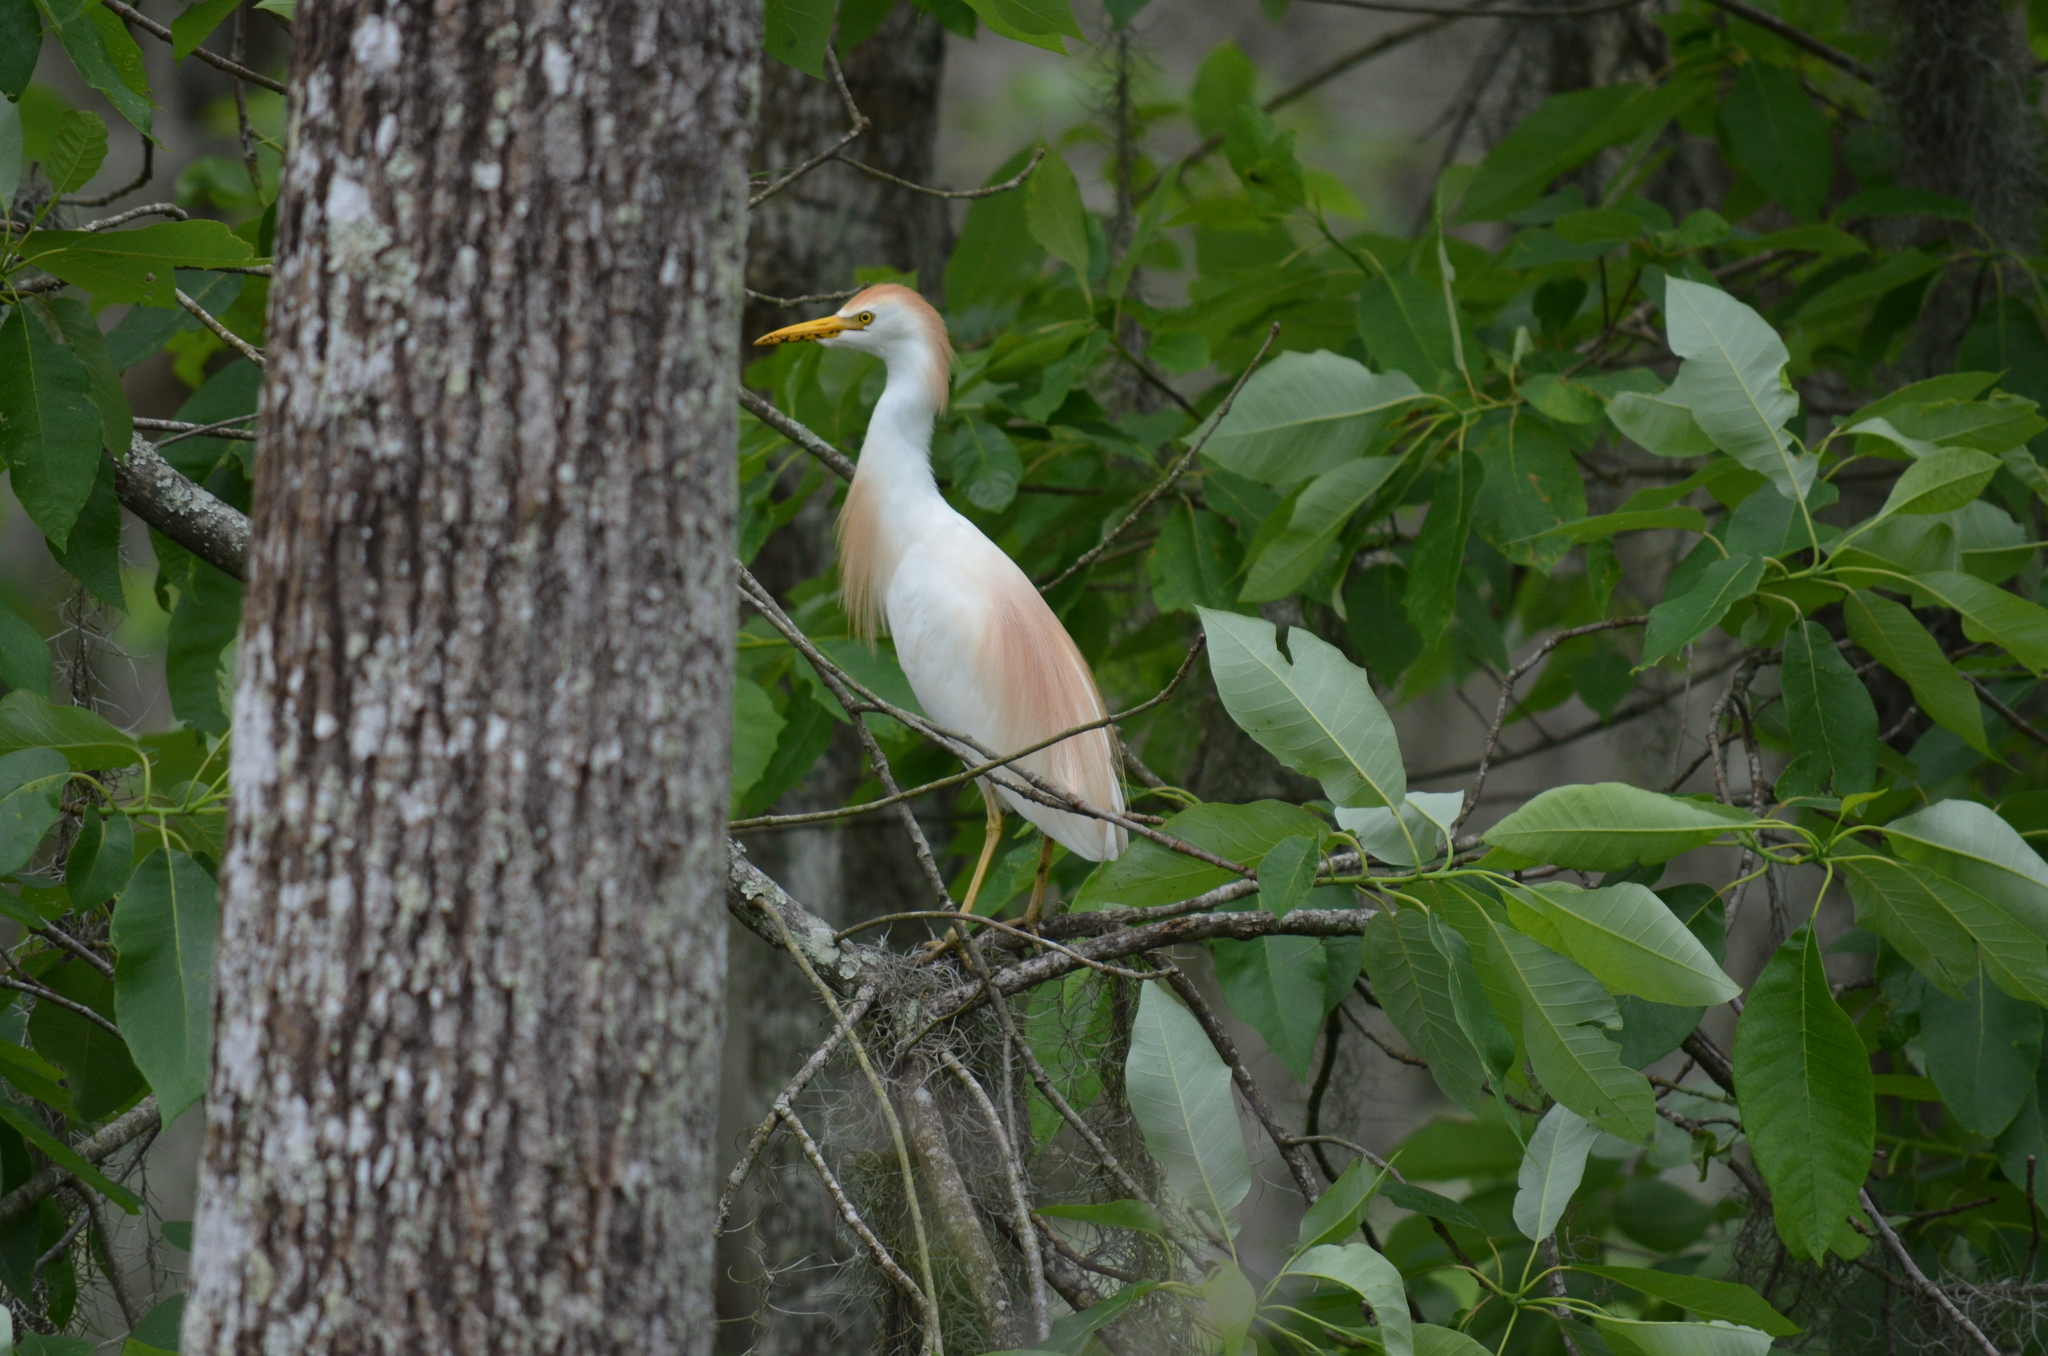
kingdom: Animalia
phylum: Chordata
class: Aves
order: Pelecaniformes
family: Ardeidae
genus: Bubulcus
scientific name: Bubulcus ibis
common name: Cattle egret
